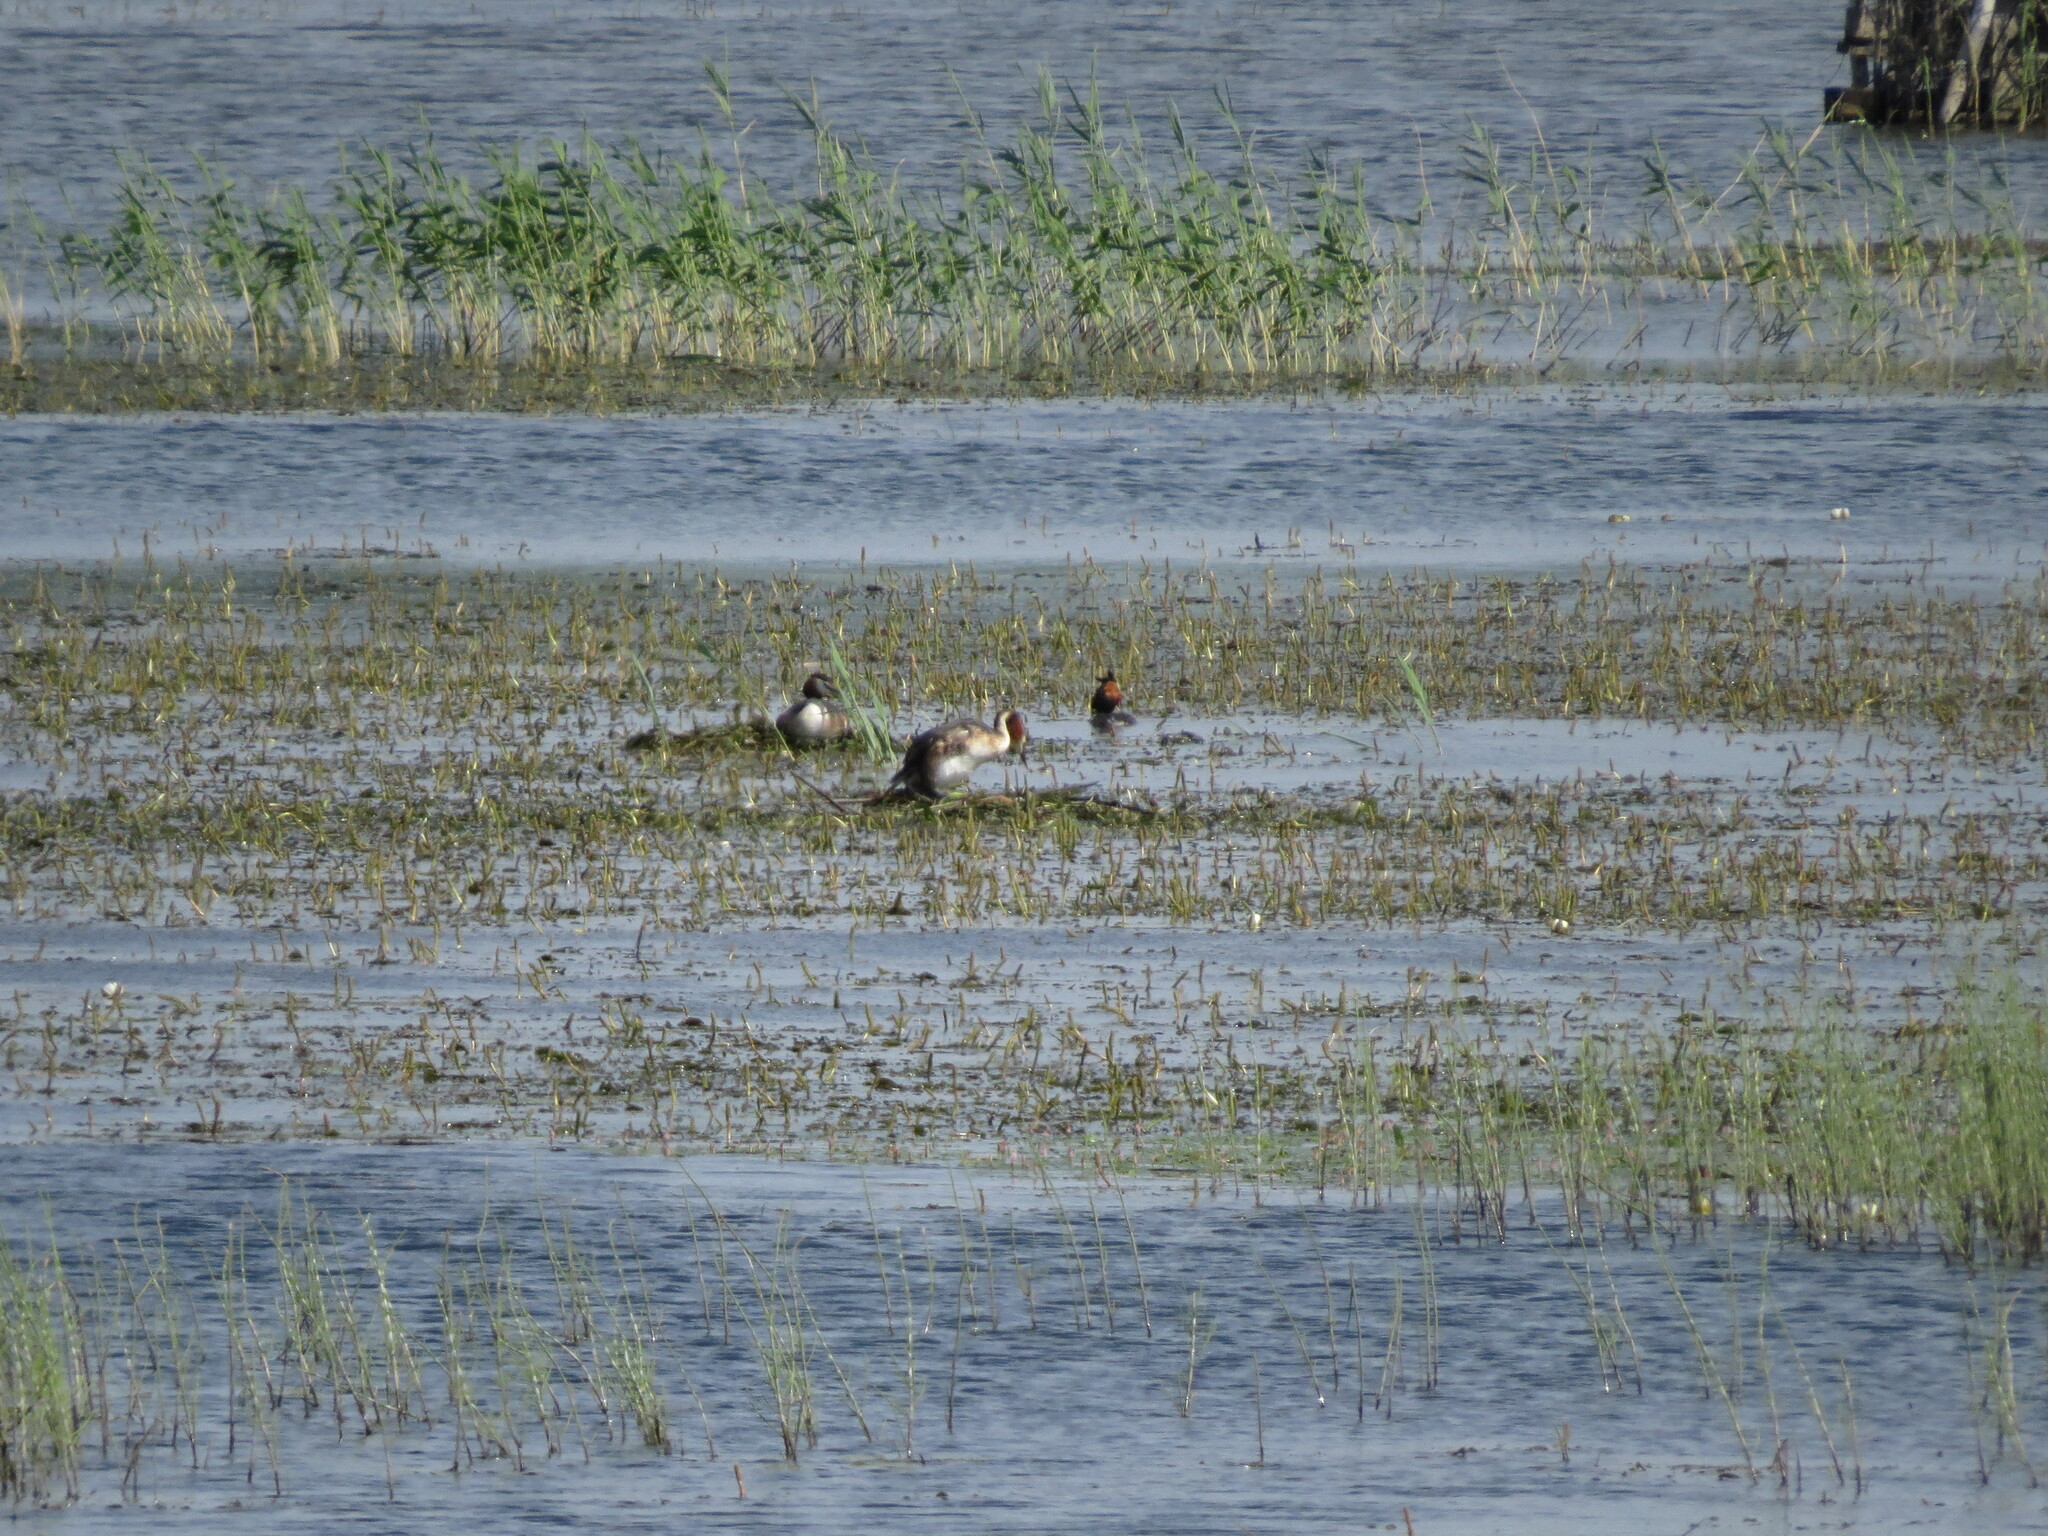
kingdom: Animalia
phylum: Chordata
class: Aves
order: Podicipediformes
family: Podicipedidae
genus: Podiceps
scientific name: Podiceps cristatus
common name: Great crested grebe
